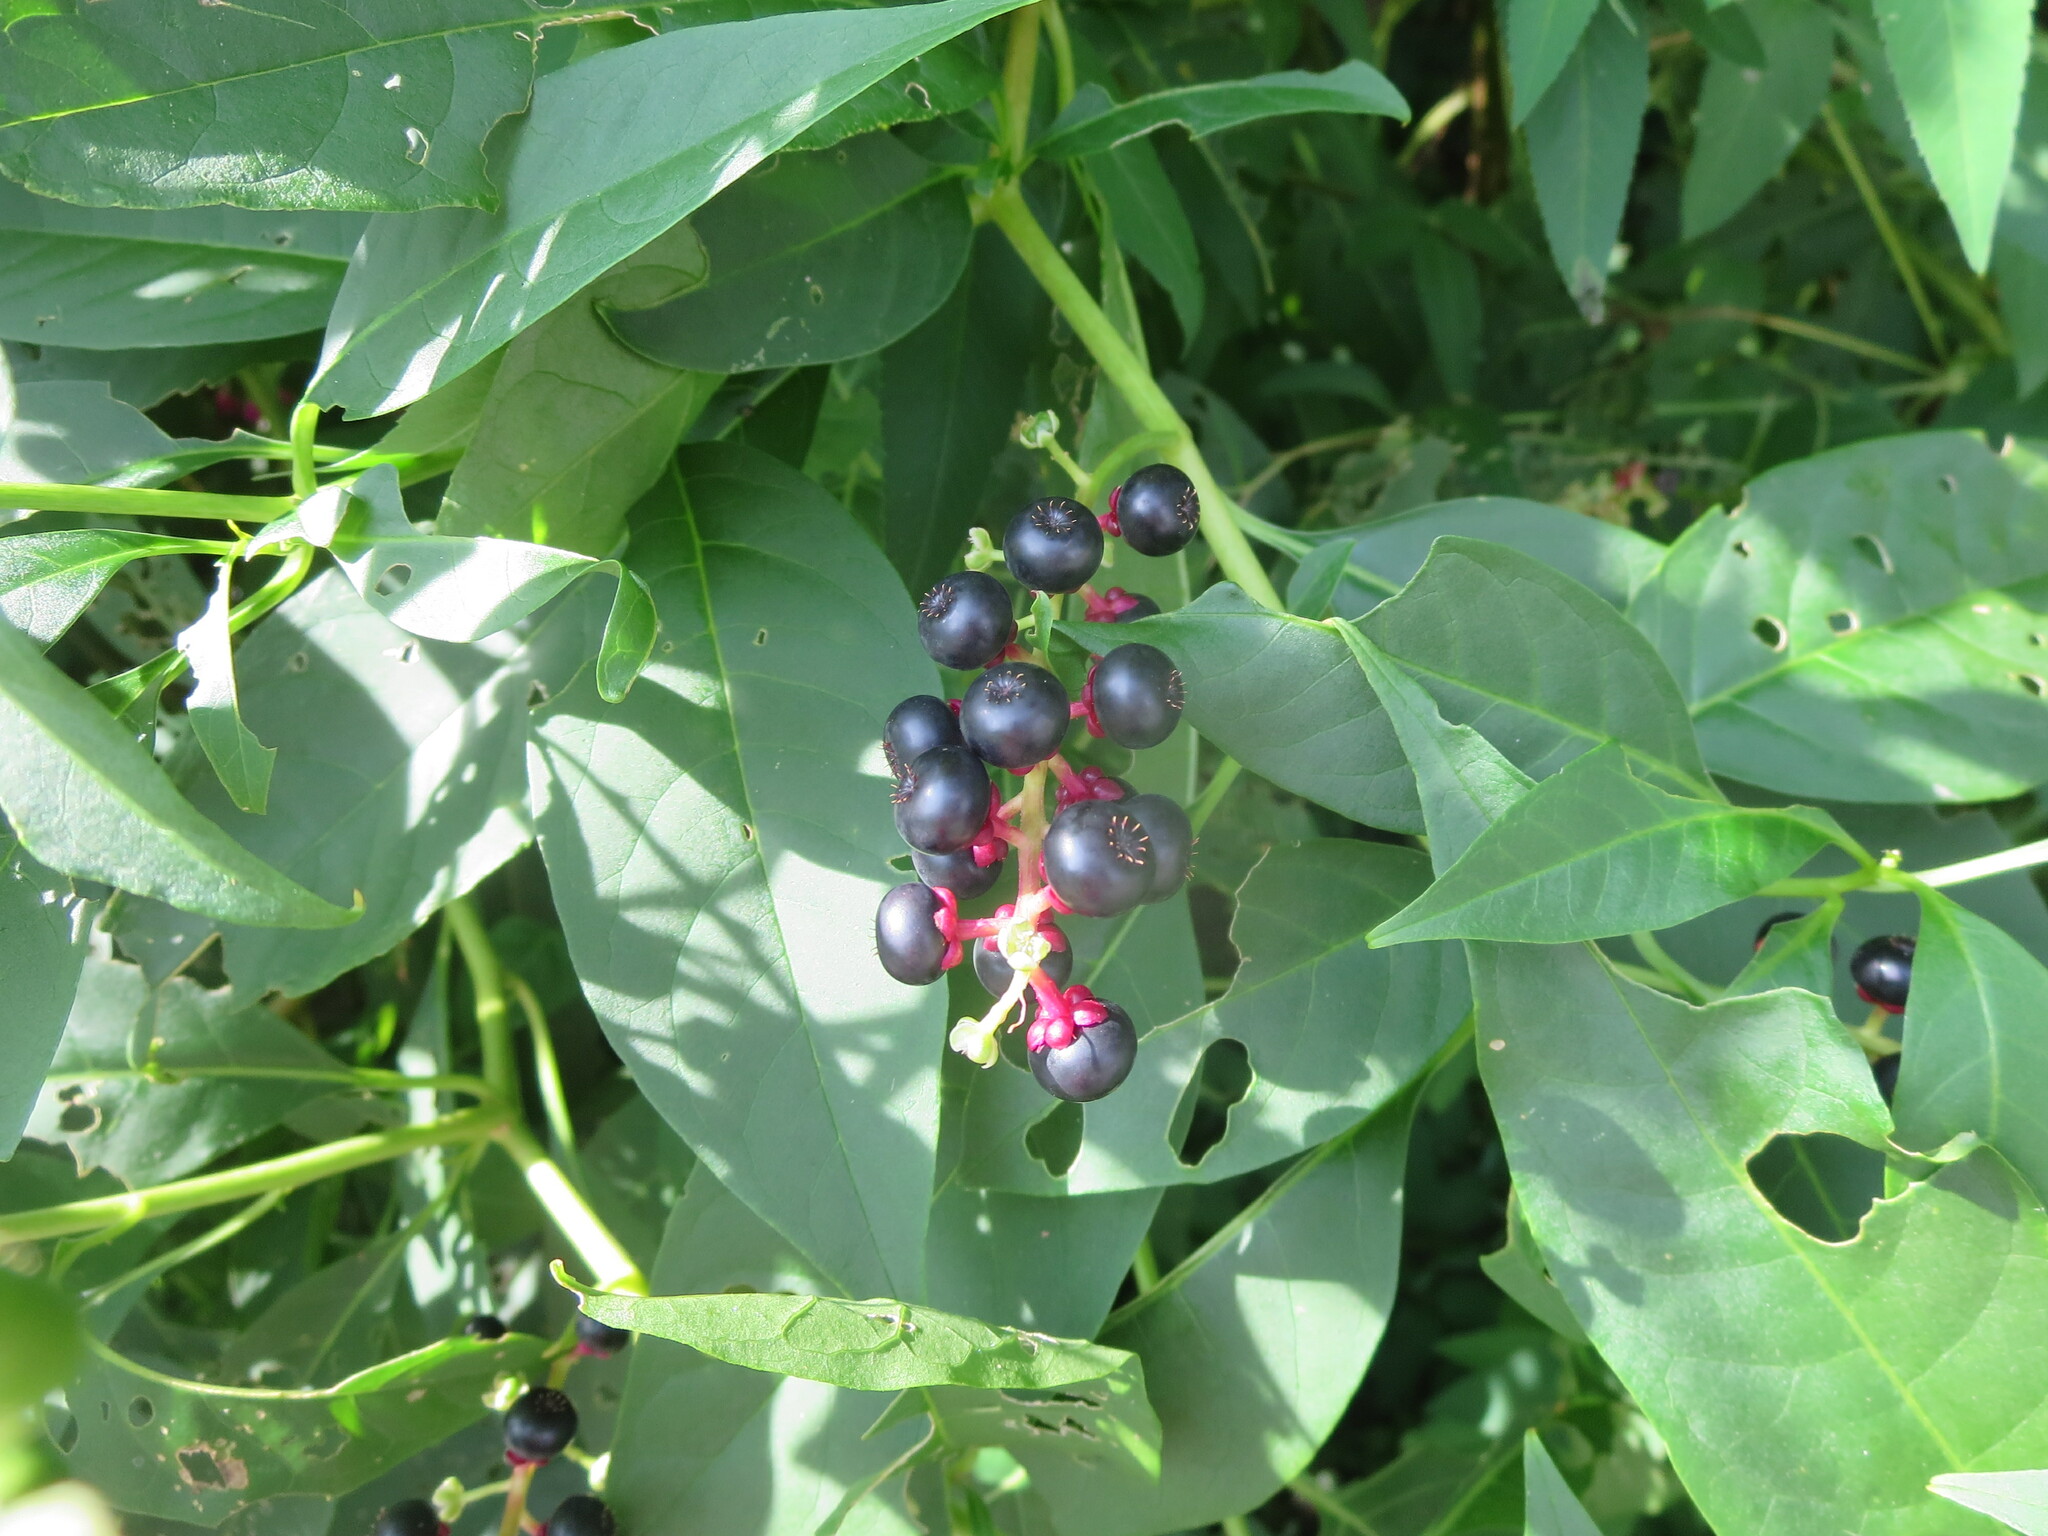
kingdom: Plantae
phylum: Tracheophyta
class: Magnoliopsida
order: Caryophyllales
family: Phytolaccaceae
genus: Phytolacca
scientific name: Phytolacca americana
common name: American pokeweed
